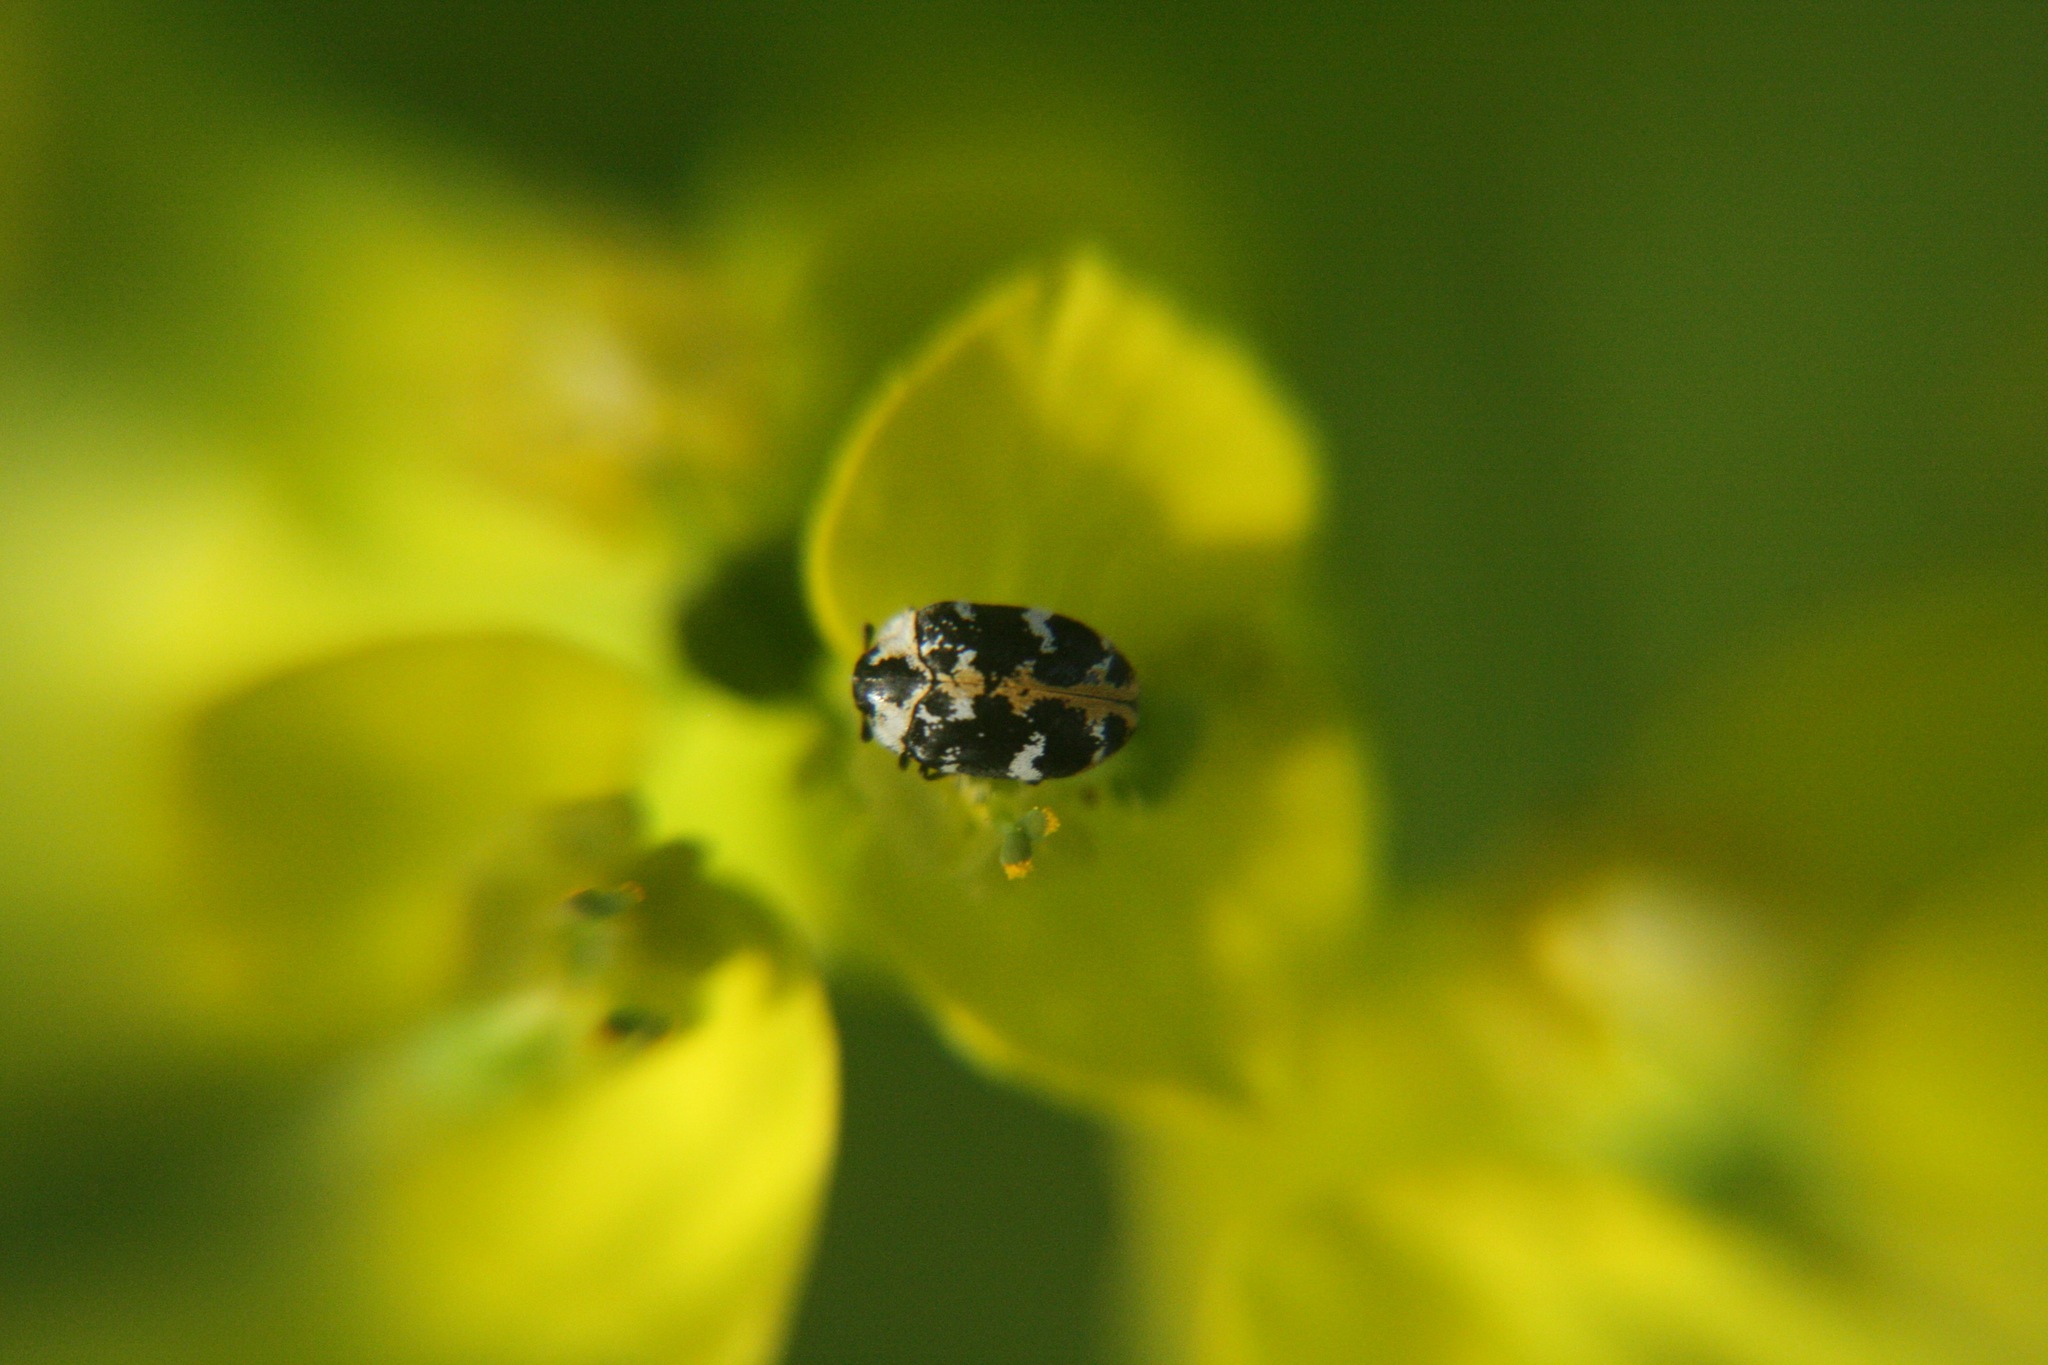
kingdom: Animalia
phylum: Arthropoda
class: Insecta
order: Coleoptera
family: Dermestidae
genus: Anthrenus
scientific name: Anthrenus scrophulariae
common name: Buffalo carpet beetle
